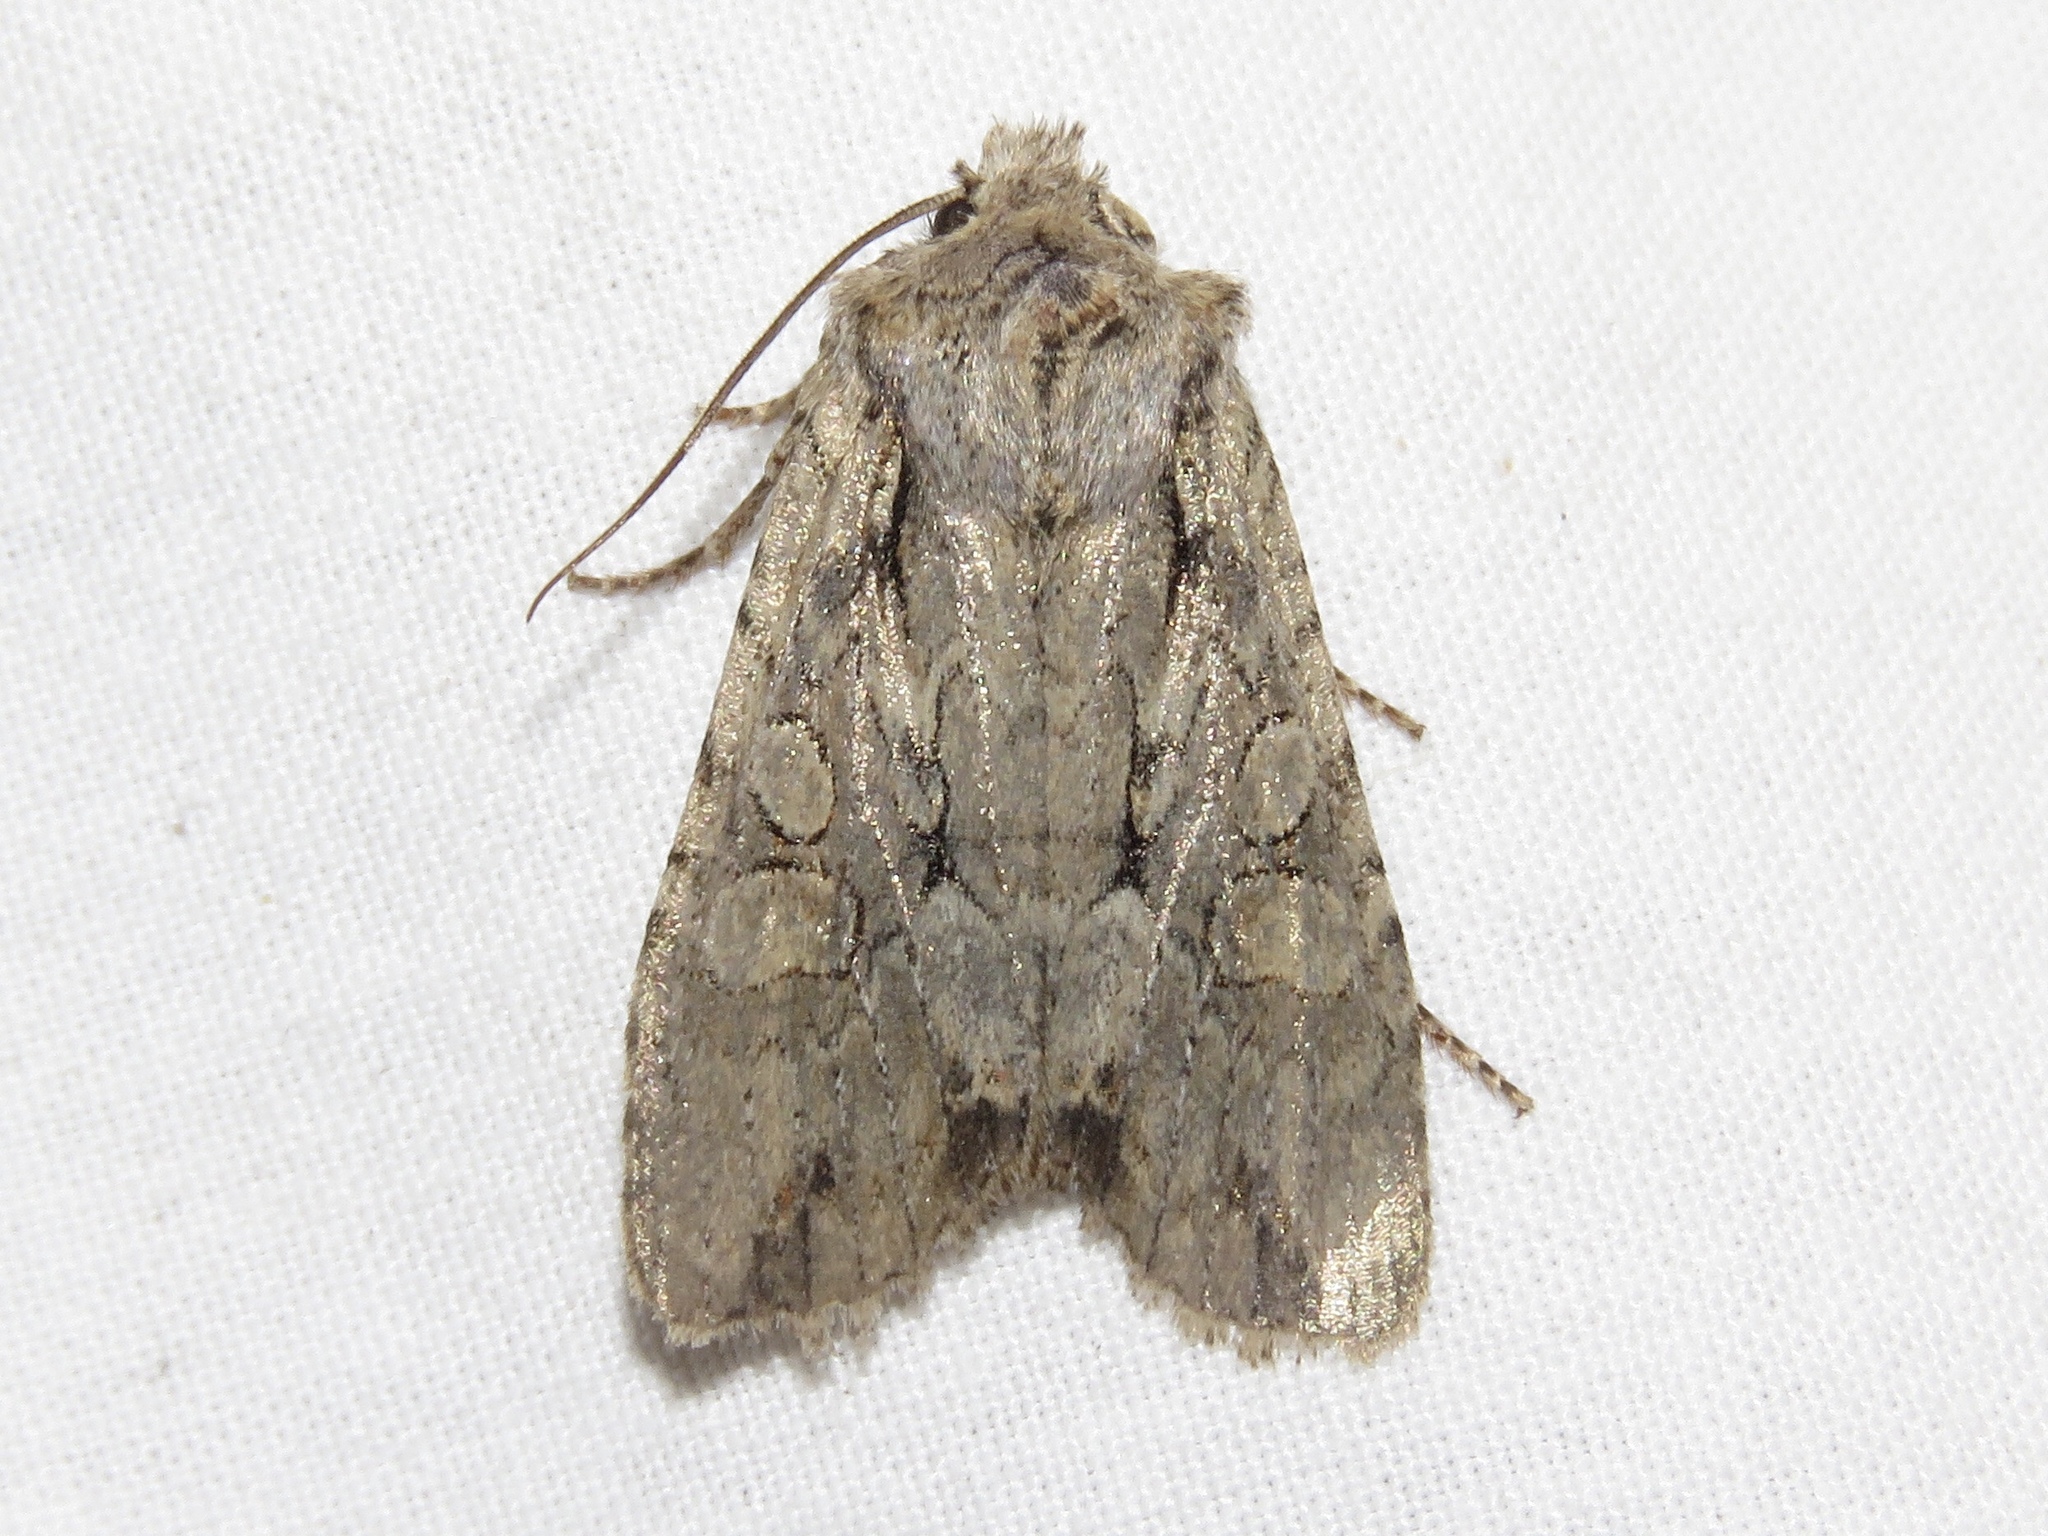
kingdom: Animalia
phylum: Arthropoda
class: Insecta
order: Lepidoptera
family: Noctuidae
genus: Lithophane
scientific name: Lithophane disposita
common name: Dashed gray pinion moth
